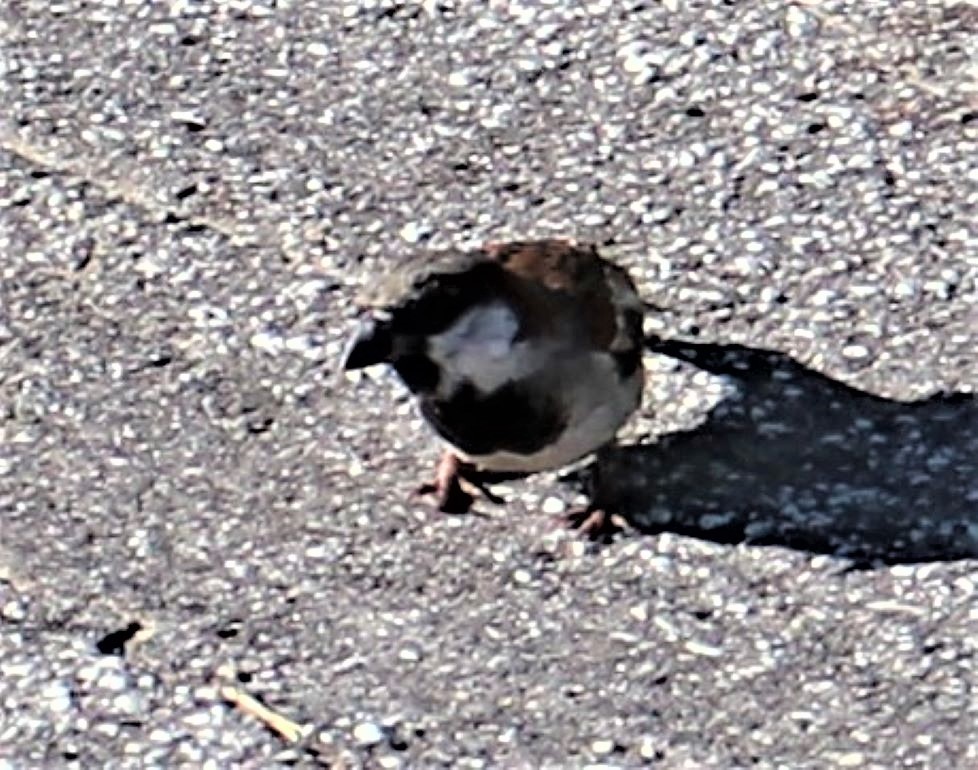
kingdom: Animalia
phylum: Chordata
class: Aves
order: Passeriformes
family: Passeridae
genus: Passer
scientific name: Passer domesticus
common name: House sparrow
